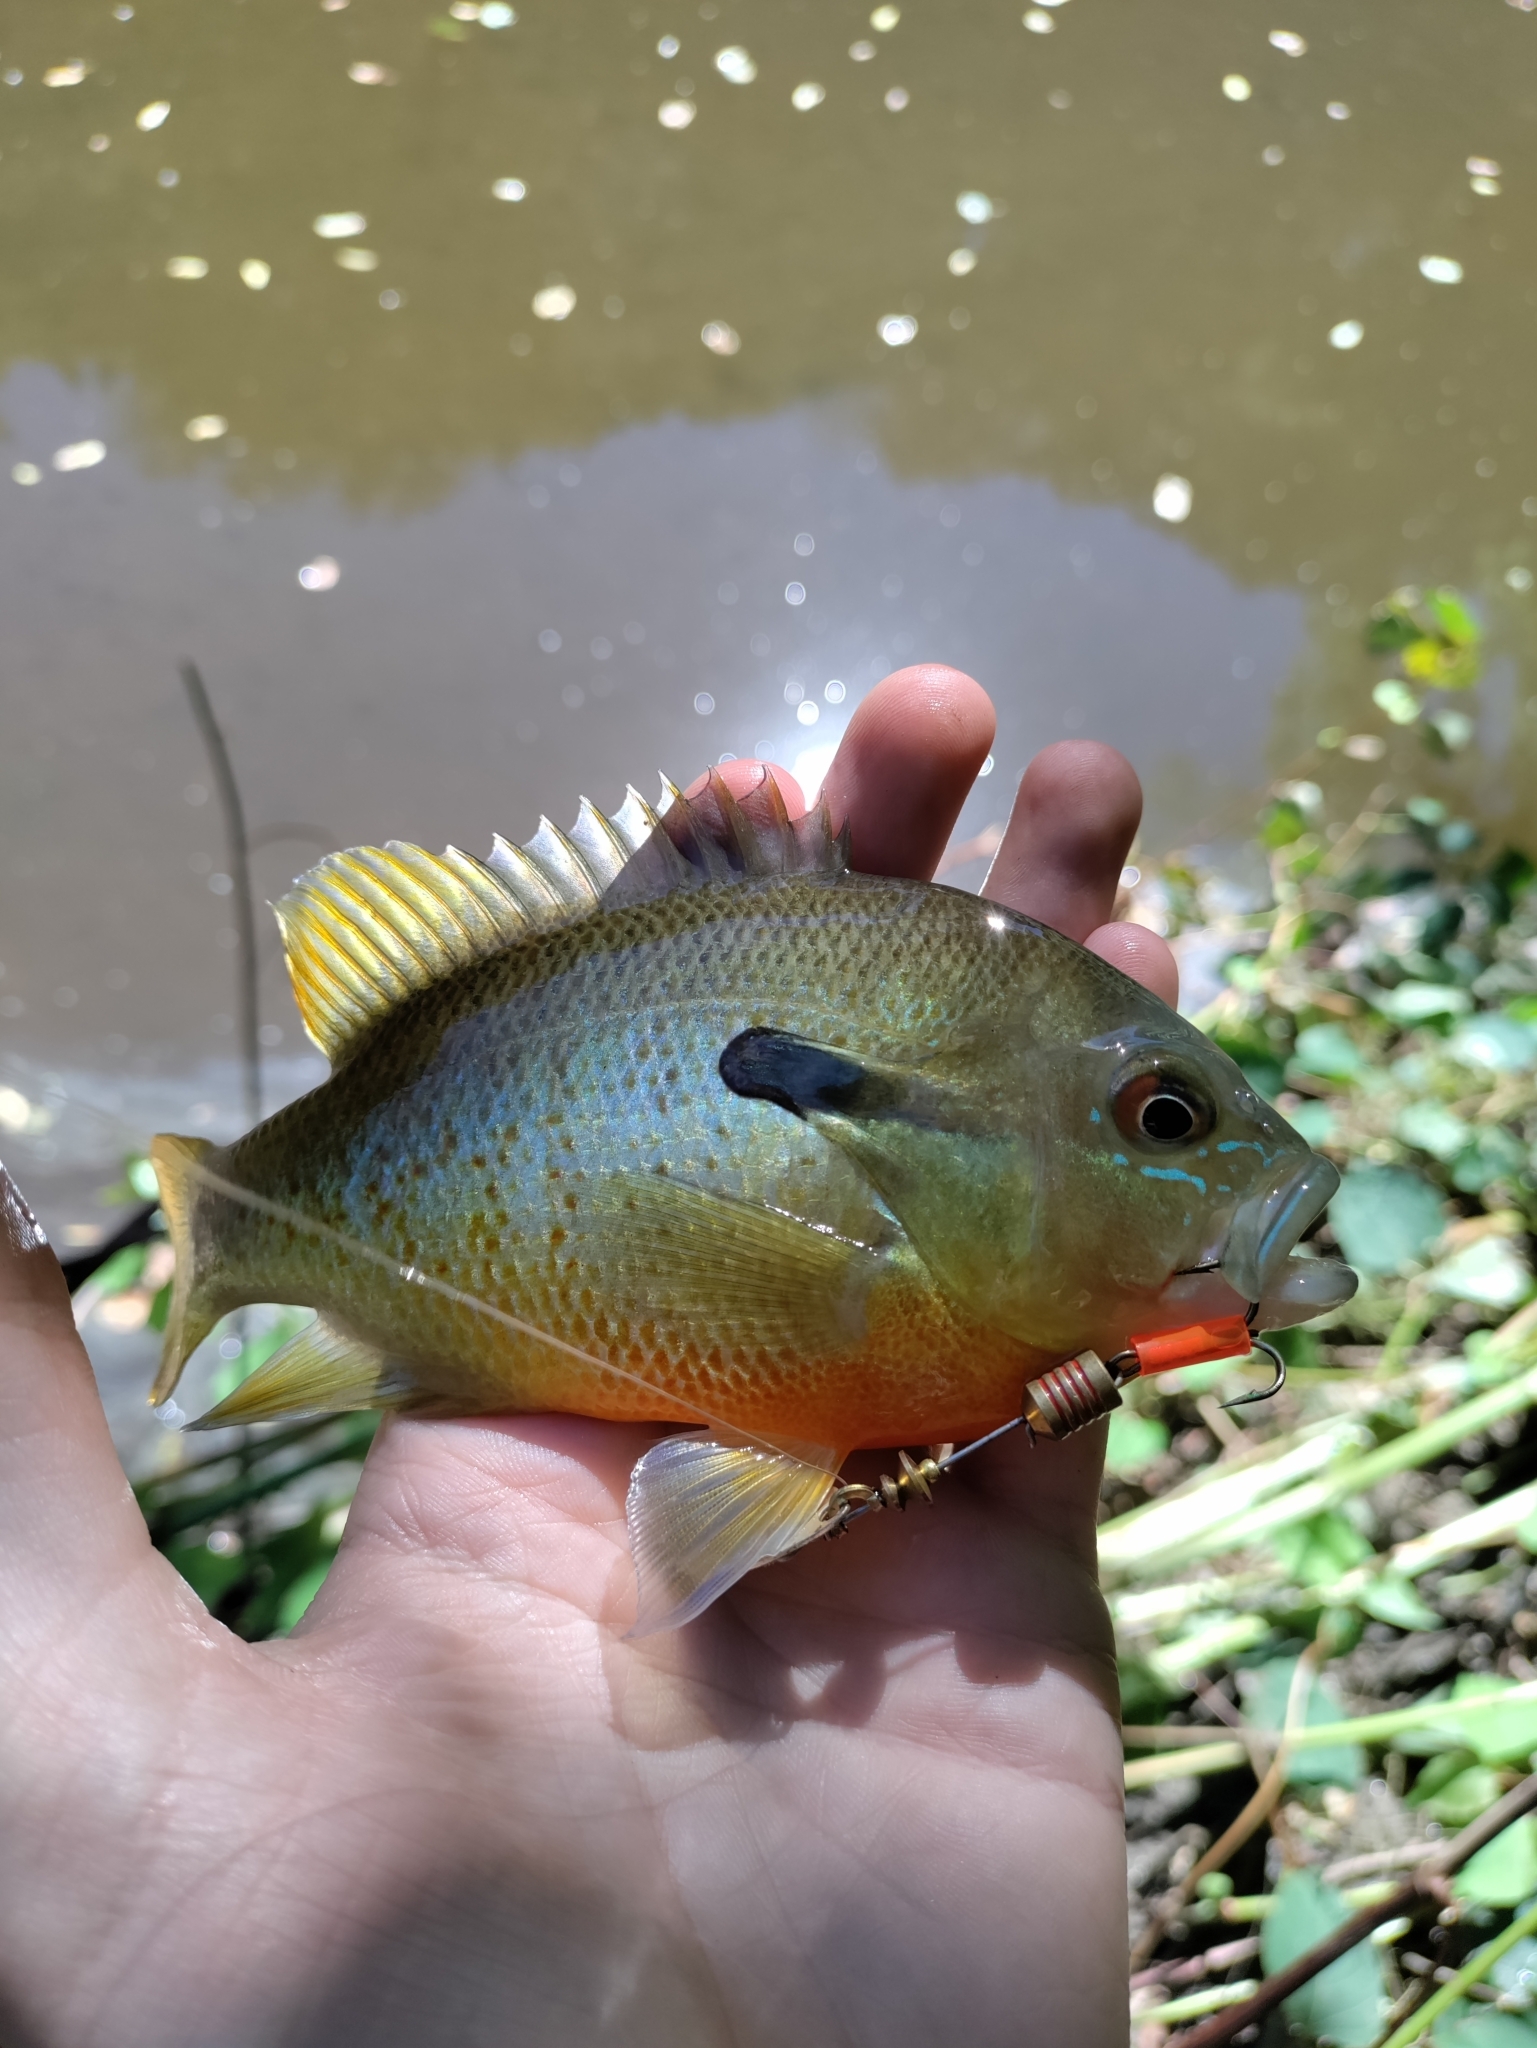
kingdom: Animalia
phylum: Chordata
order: Perciformes
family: Centrarchidae
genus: Lepomis
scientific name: Lepomis auritus
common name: Redbreast sunfish
